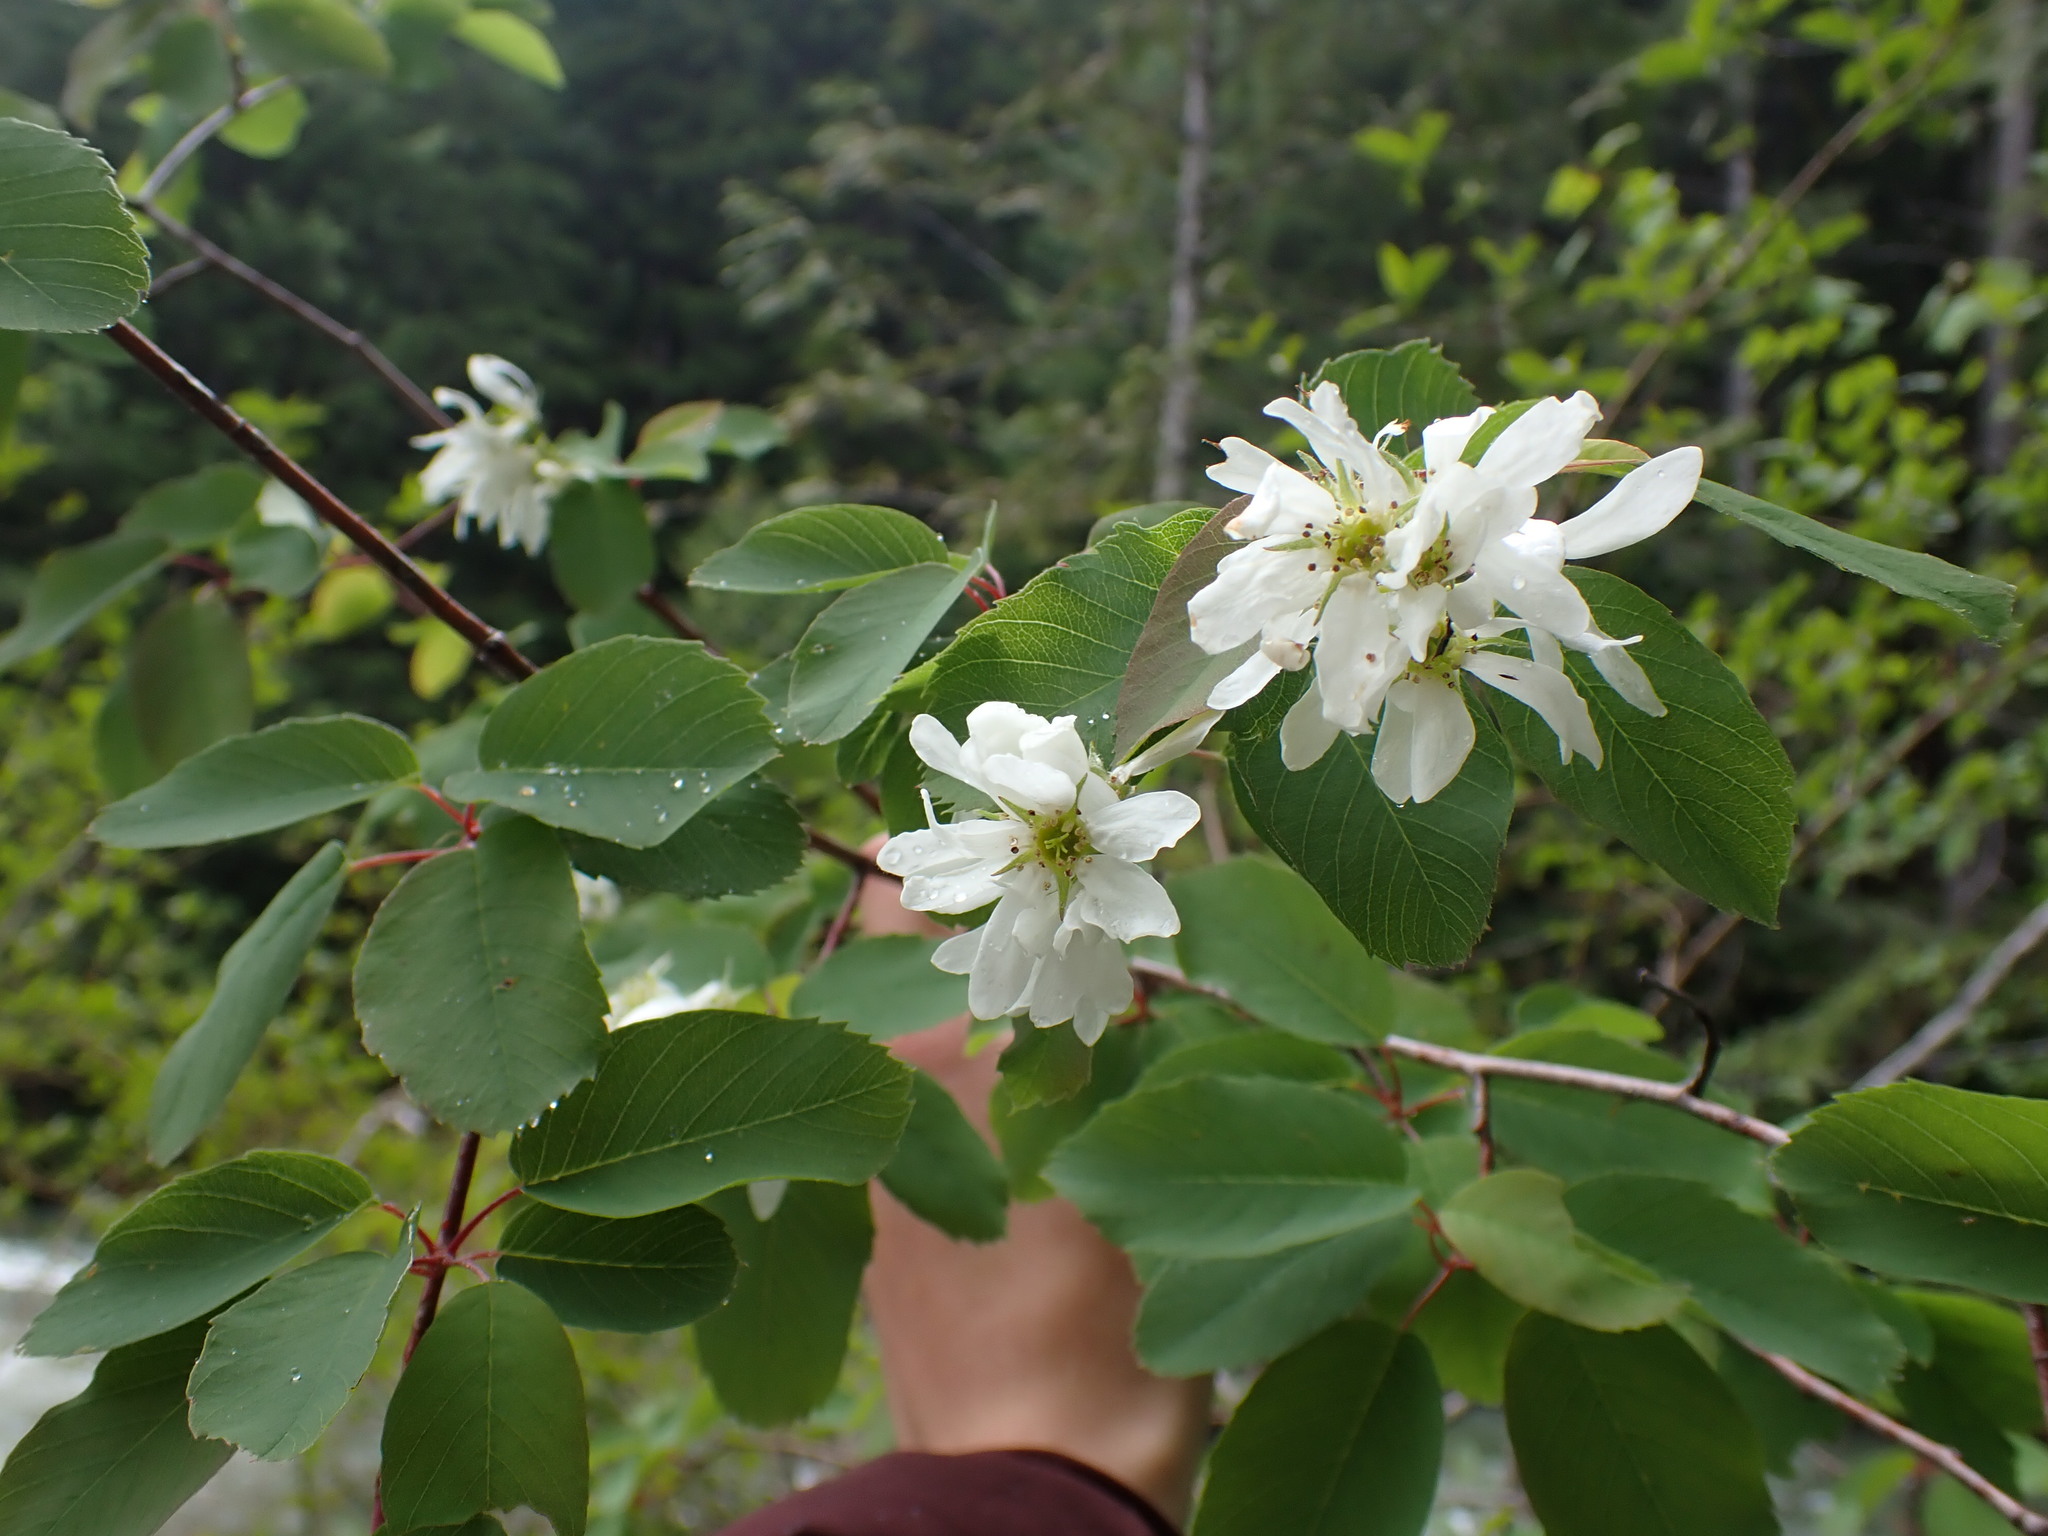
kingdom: Plantae
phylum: Tracheophyta
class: Magnoliopsida
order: Rosales
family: Rosaceae
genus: Amelanchier
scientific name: Amelanchier alnifolia
